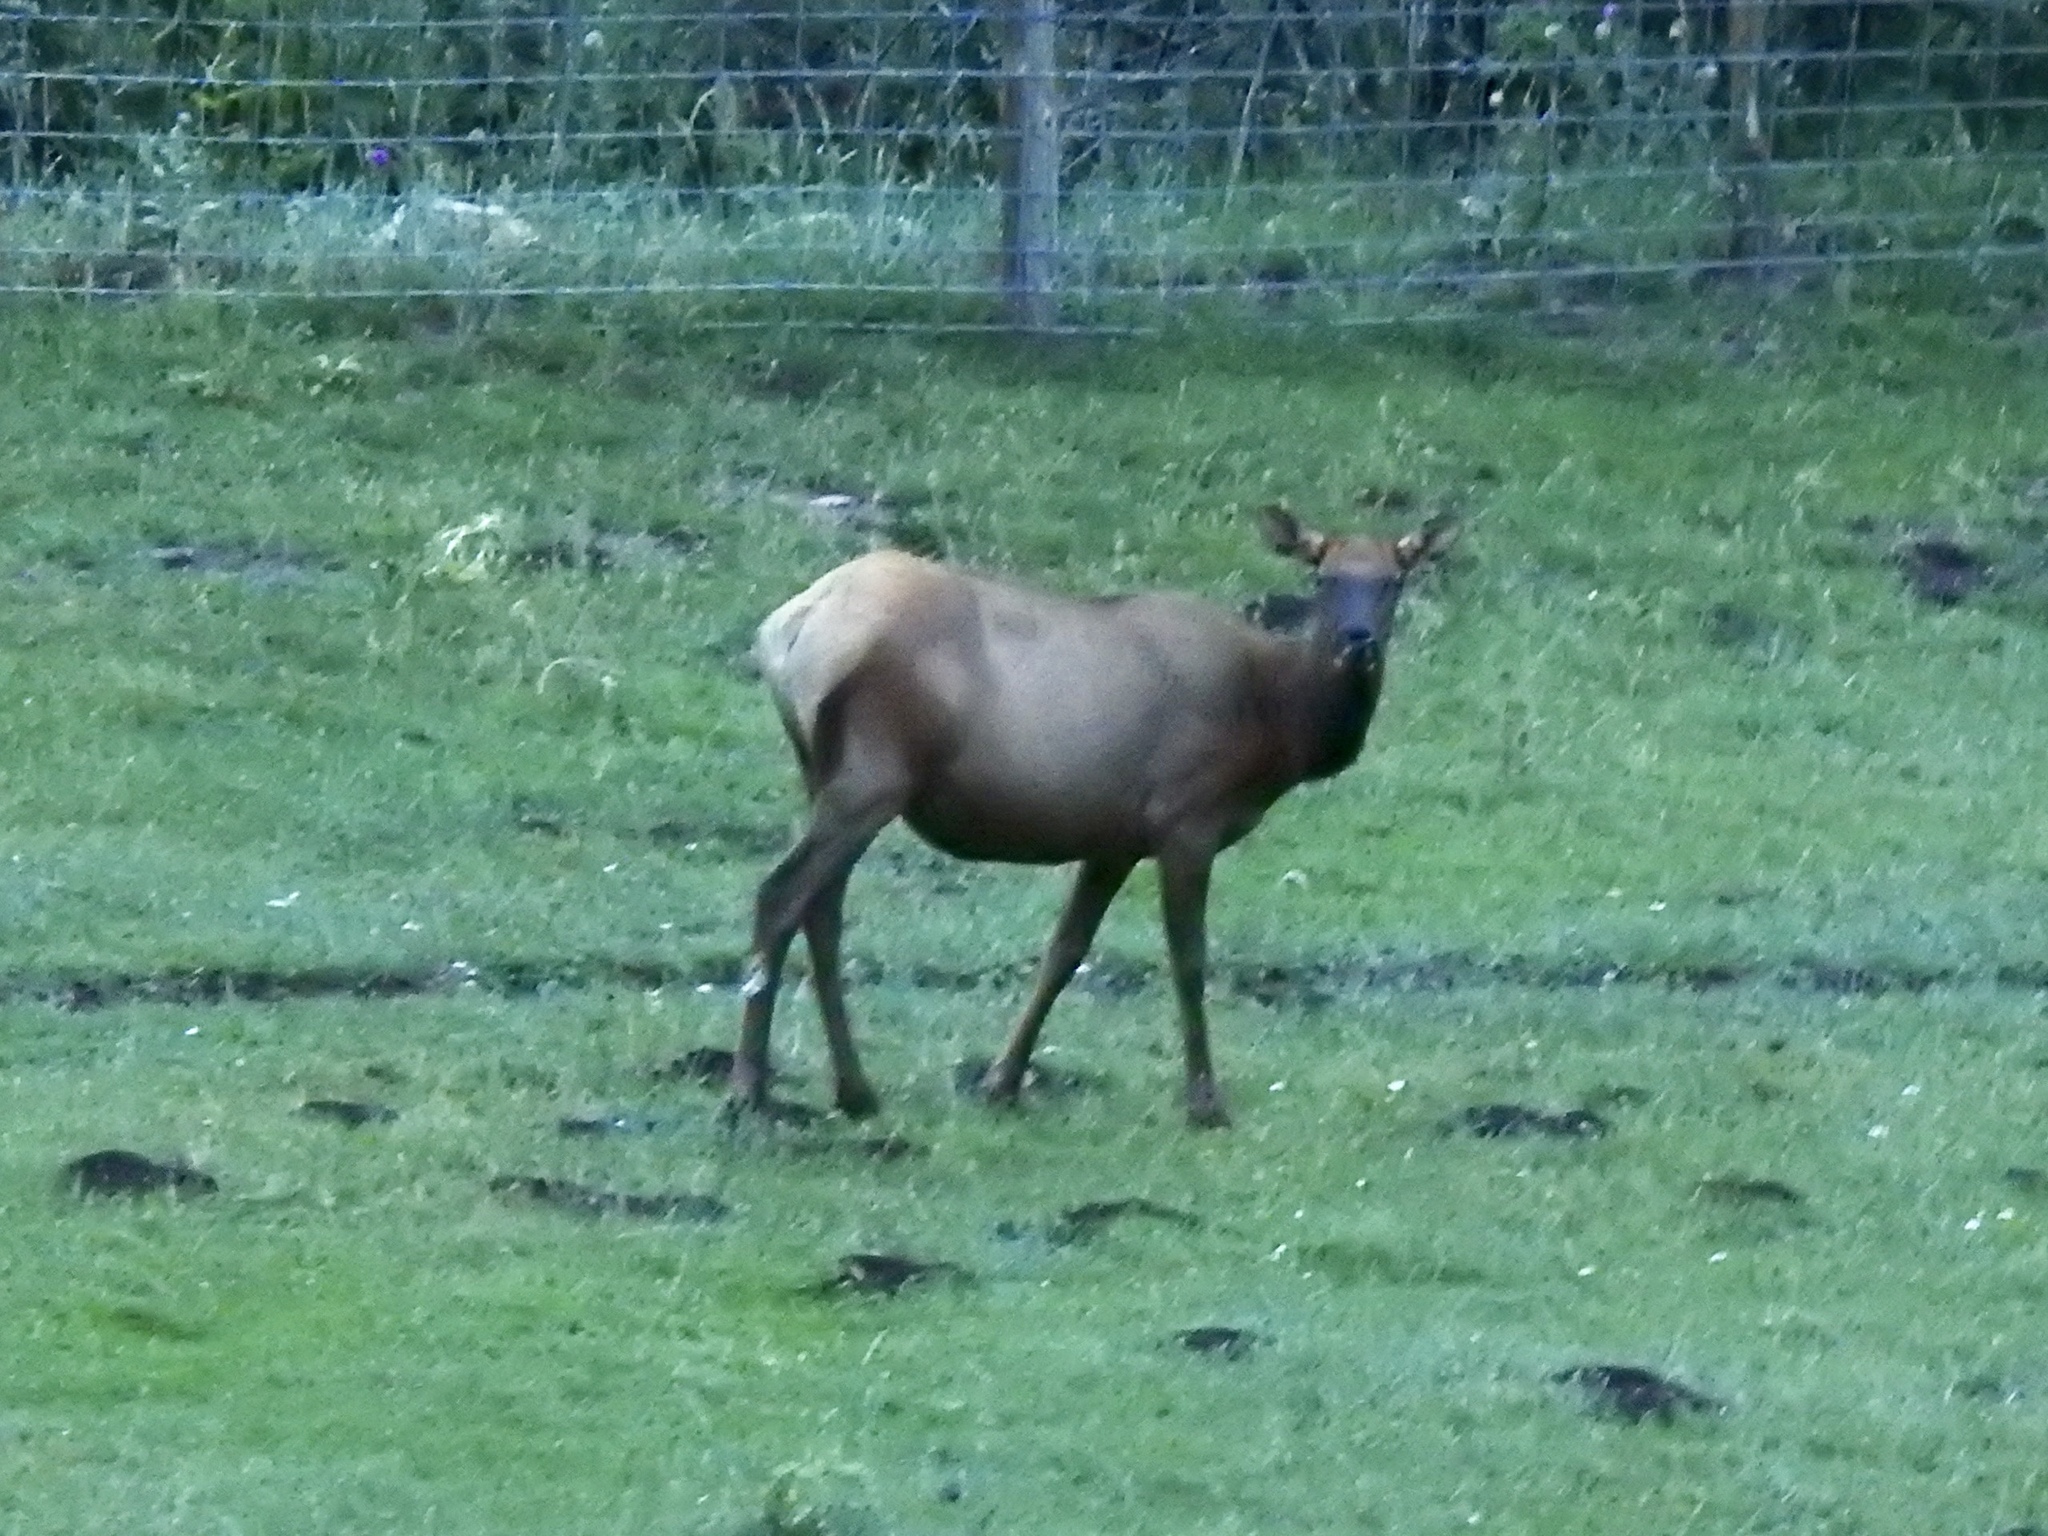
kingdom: Animalia
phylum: Chordata
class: Mammalia
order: Artiodactyla
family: Cervidae
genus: Cervus
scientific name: Cervus elaphus
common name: Red deer
